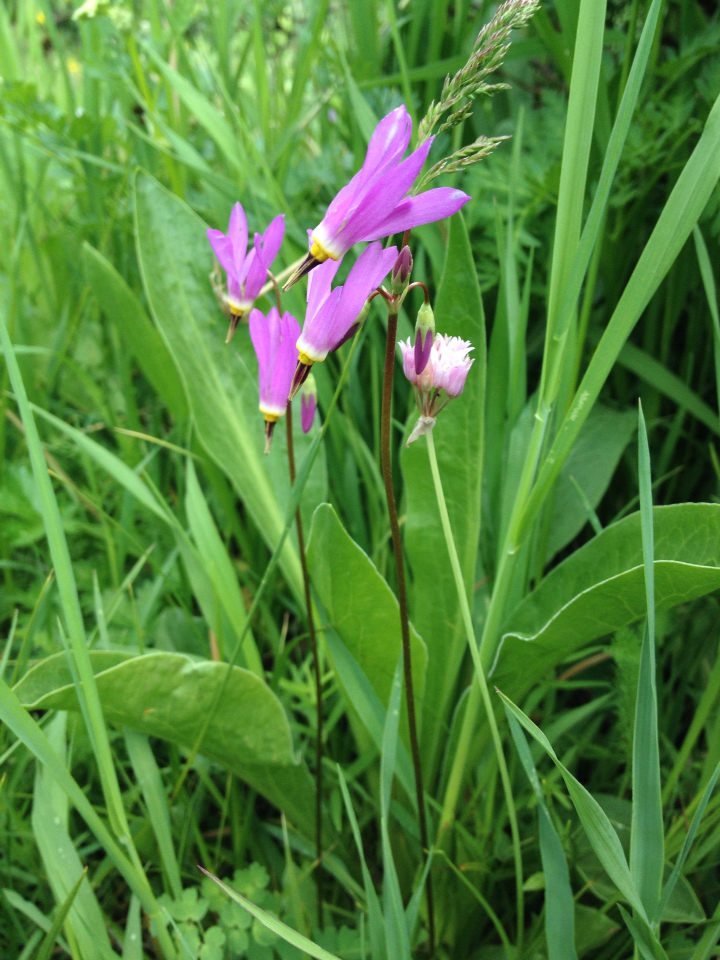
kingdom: Plantae
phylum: Tracheophyta
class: Magnoliopsida
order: Ericales
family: Primulaceae
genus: Dodecatheon
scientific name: Dodecatheon pulchellum
